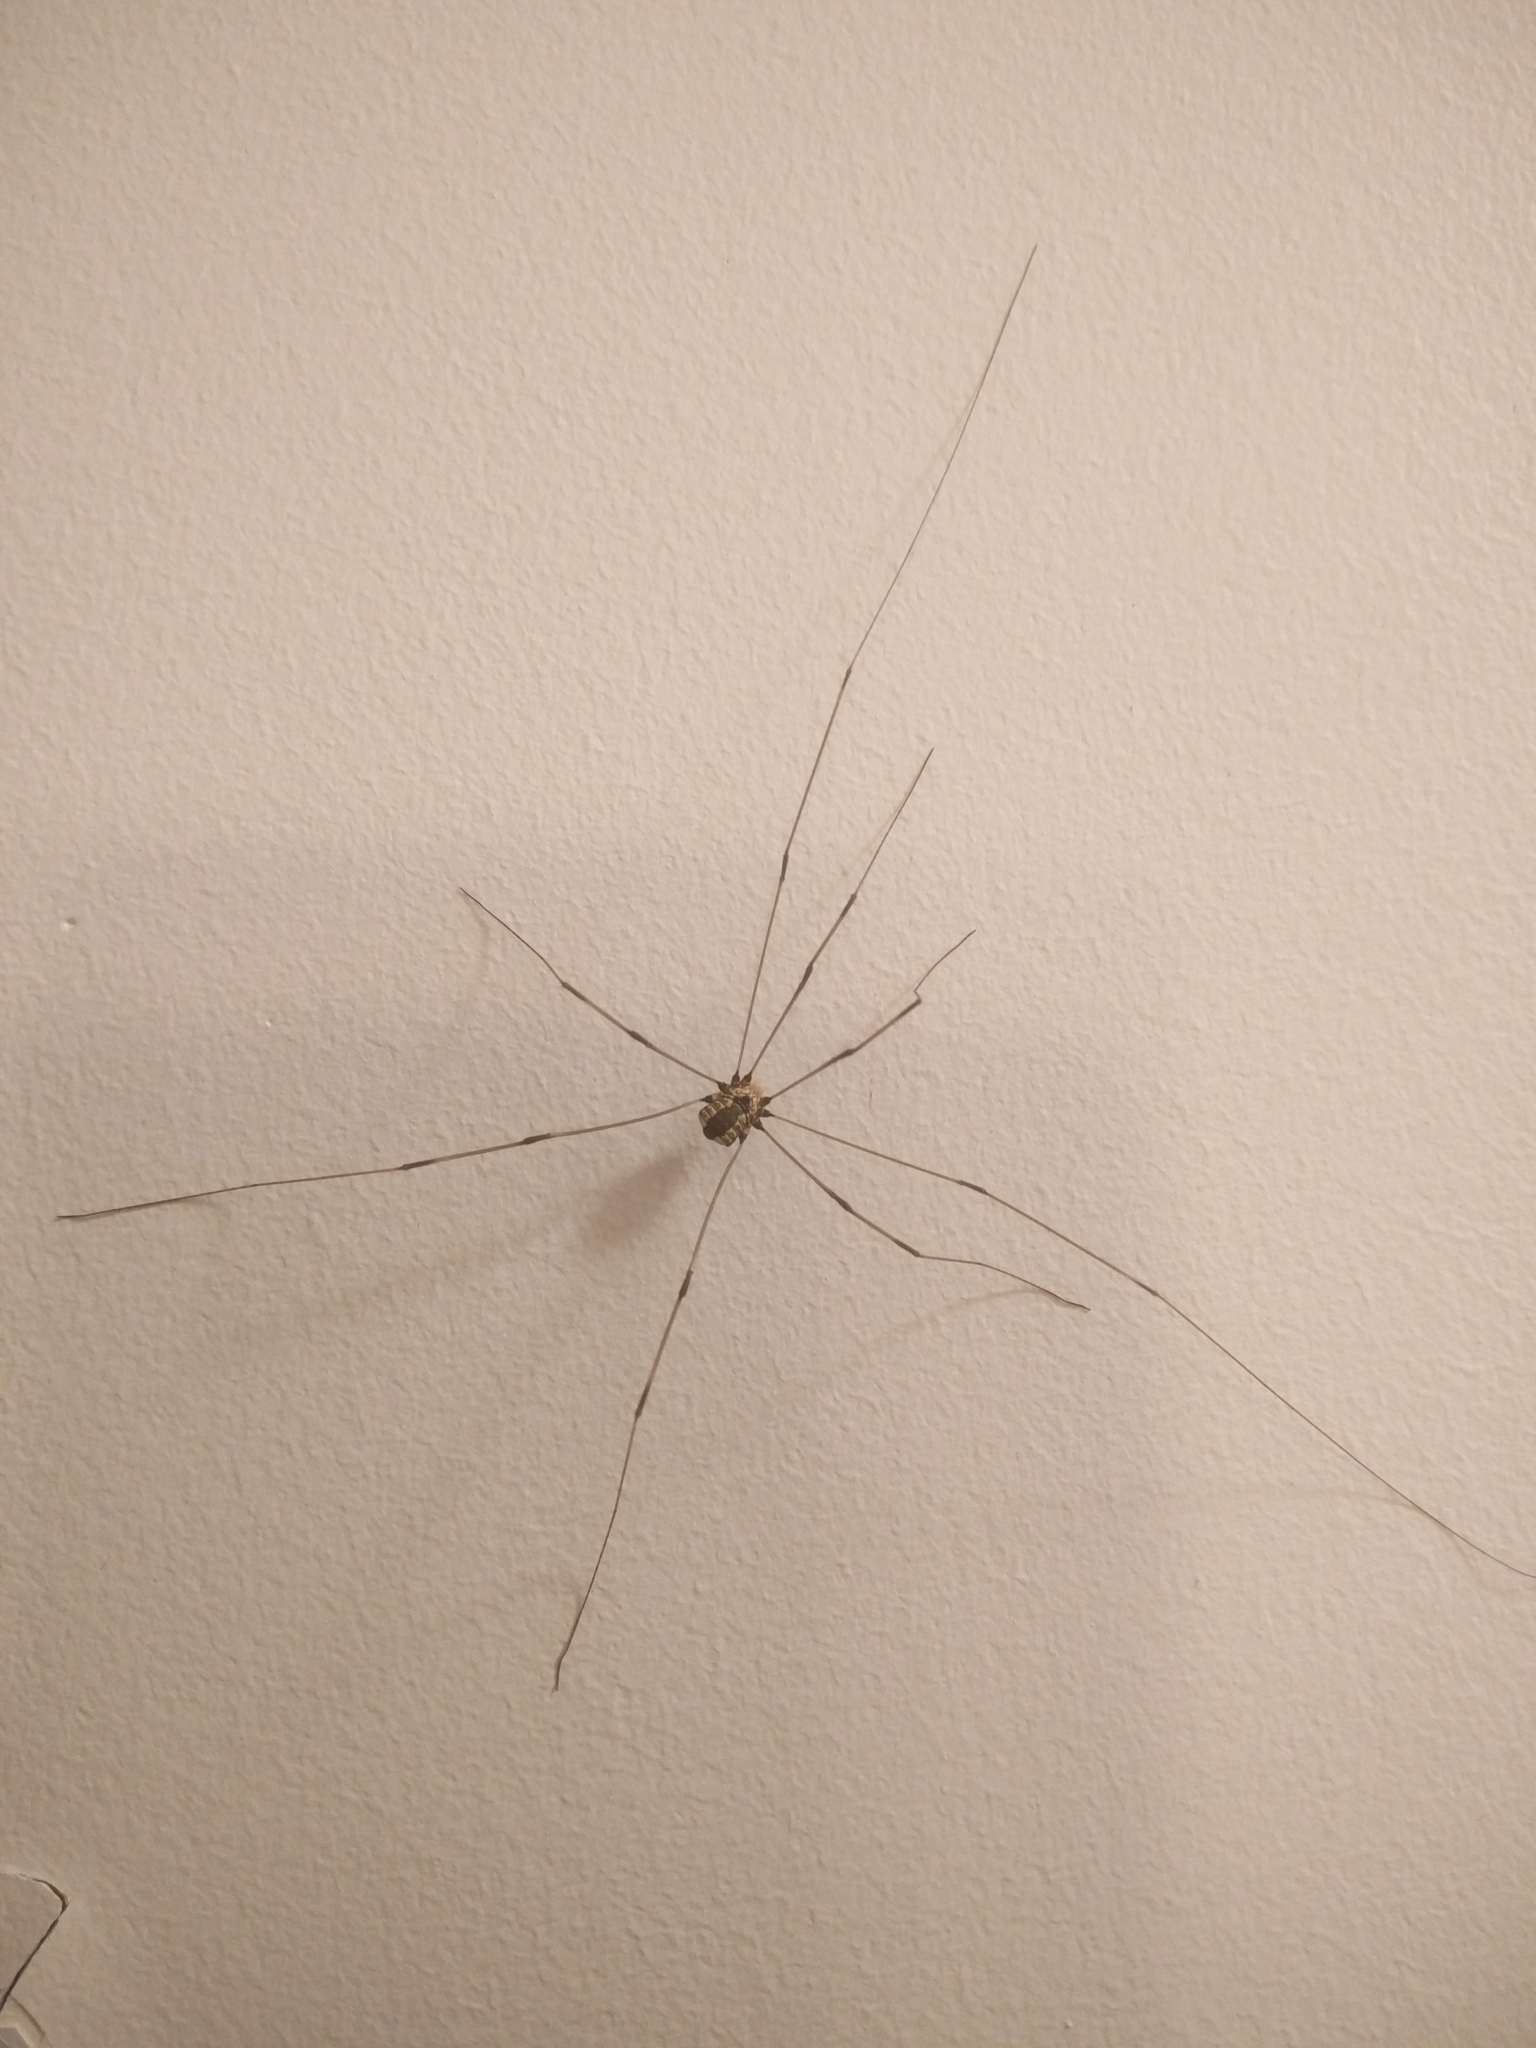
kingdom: Animalia
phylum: Arthropoda
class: Arachnida
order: Opiliones
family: Sclerosomatidae
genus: Leiobunum
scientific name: Leiobunum vittatum
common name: Eastern harvestman
